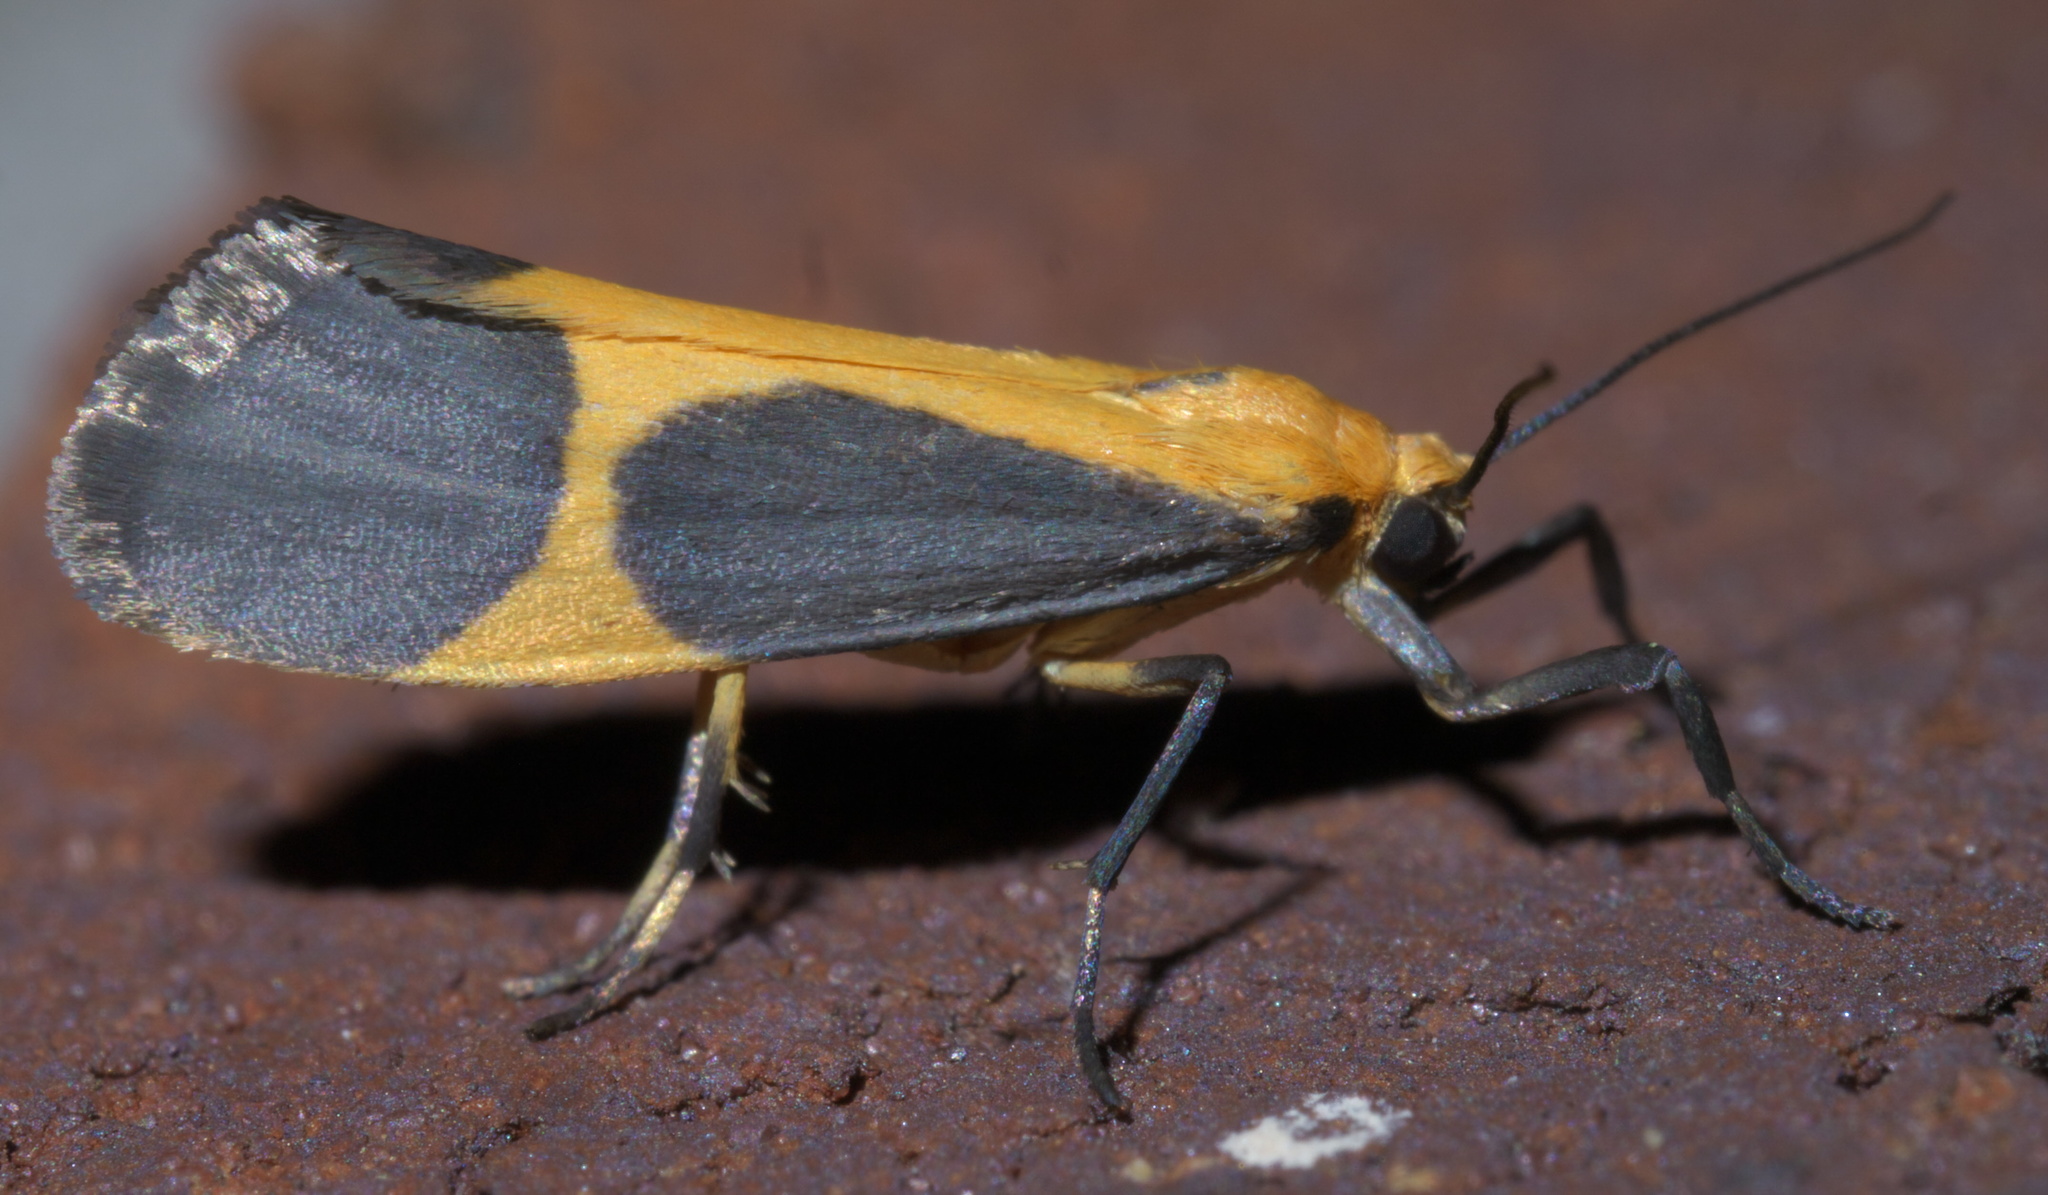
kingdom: Animalia
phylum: Arthropoda
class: Insecta
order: Lepidoptera
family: Erebidae
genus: Cisthene
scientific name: Cisthene picta
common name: Pictured lichen moth
